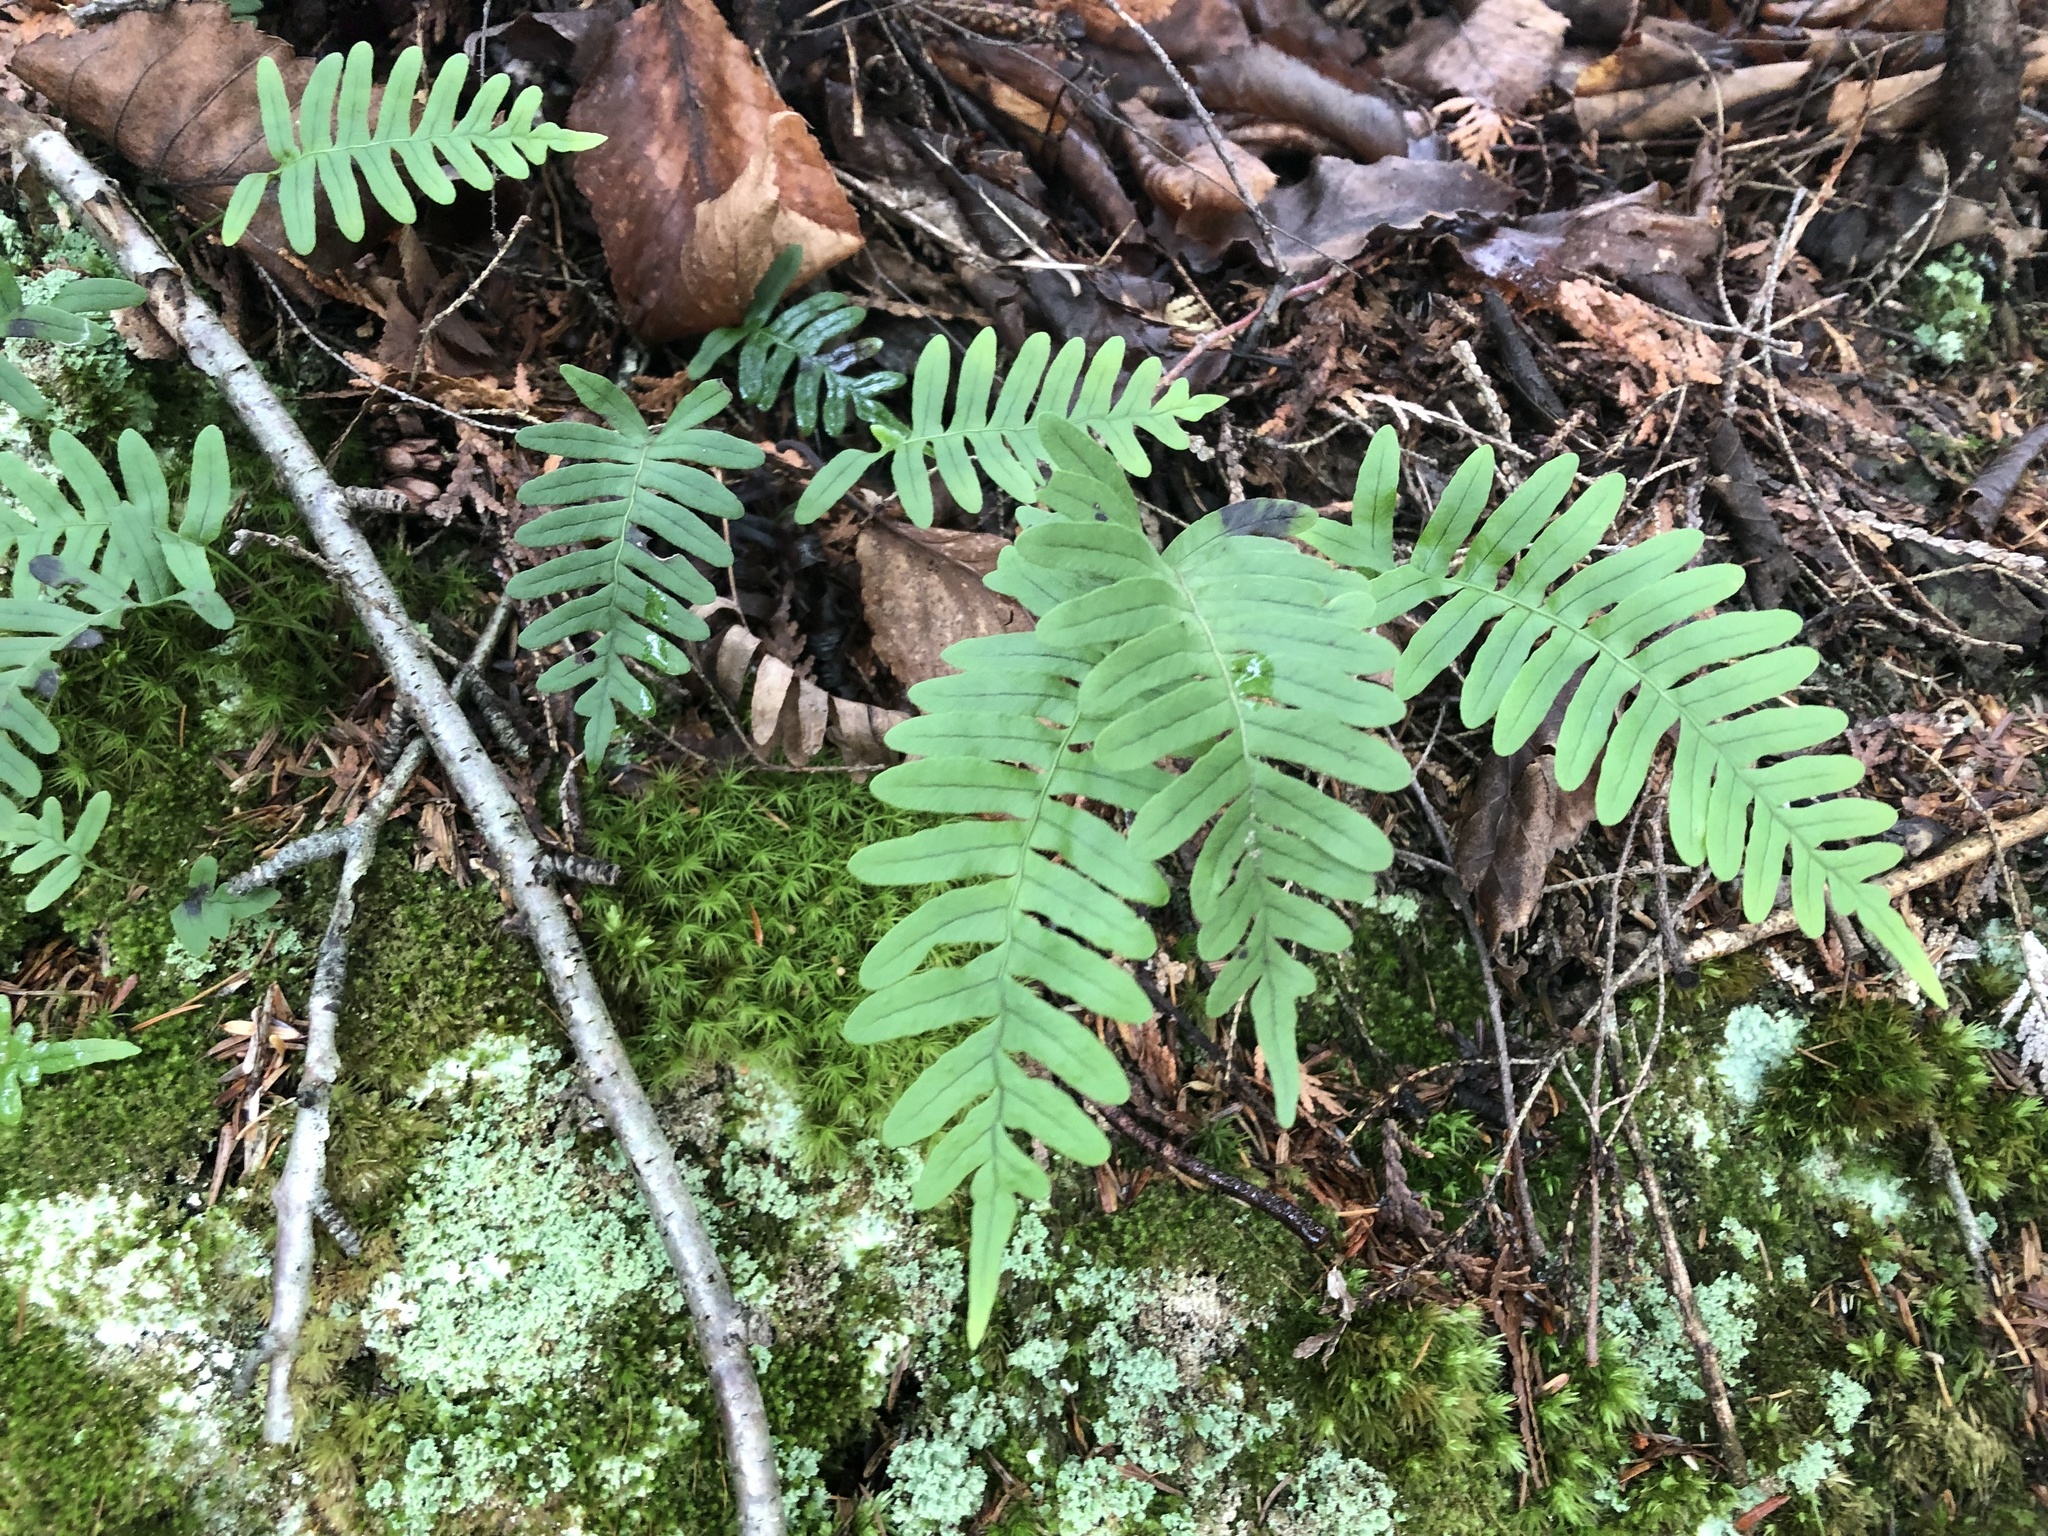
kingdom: Plantae
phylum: Tracheophyta
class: Polypodiopsida
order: Polypodiales
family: Polypodiaceae
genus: Polypodium
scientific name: Polypodium virginianum
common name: American wall fern
